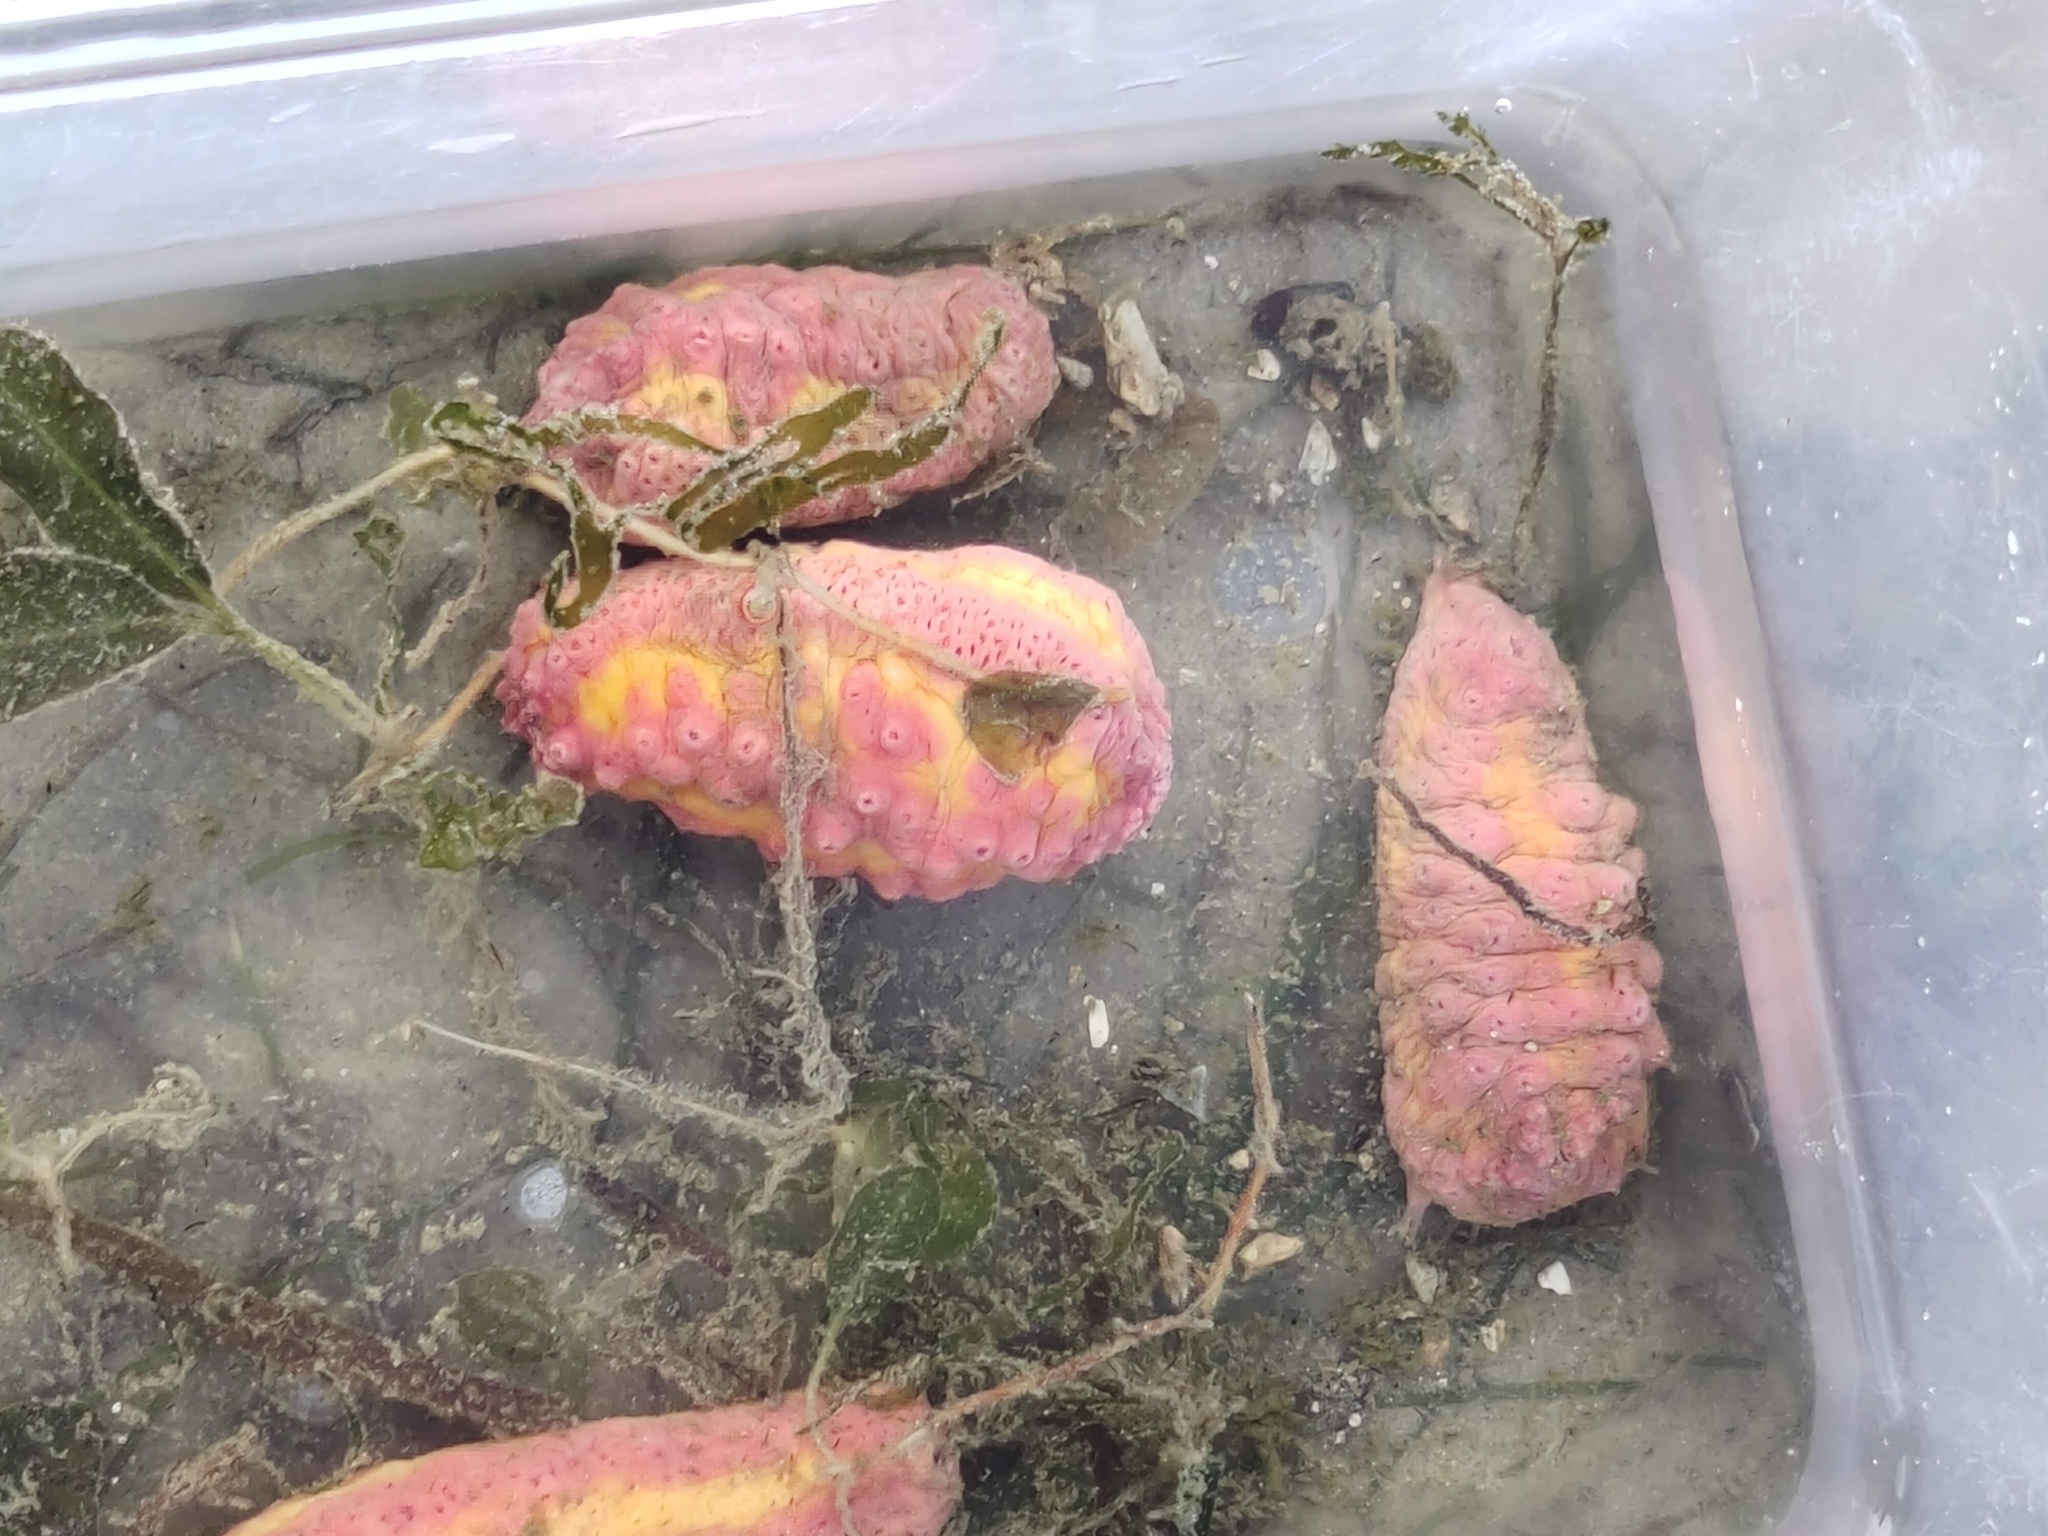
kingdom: Animalia
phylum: Echinodermata
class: Holothuroidea
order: Dendrochirotida
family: Cucumariidae
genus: Cercodemas
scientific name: Cercodemas anceps
